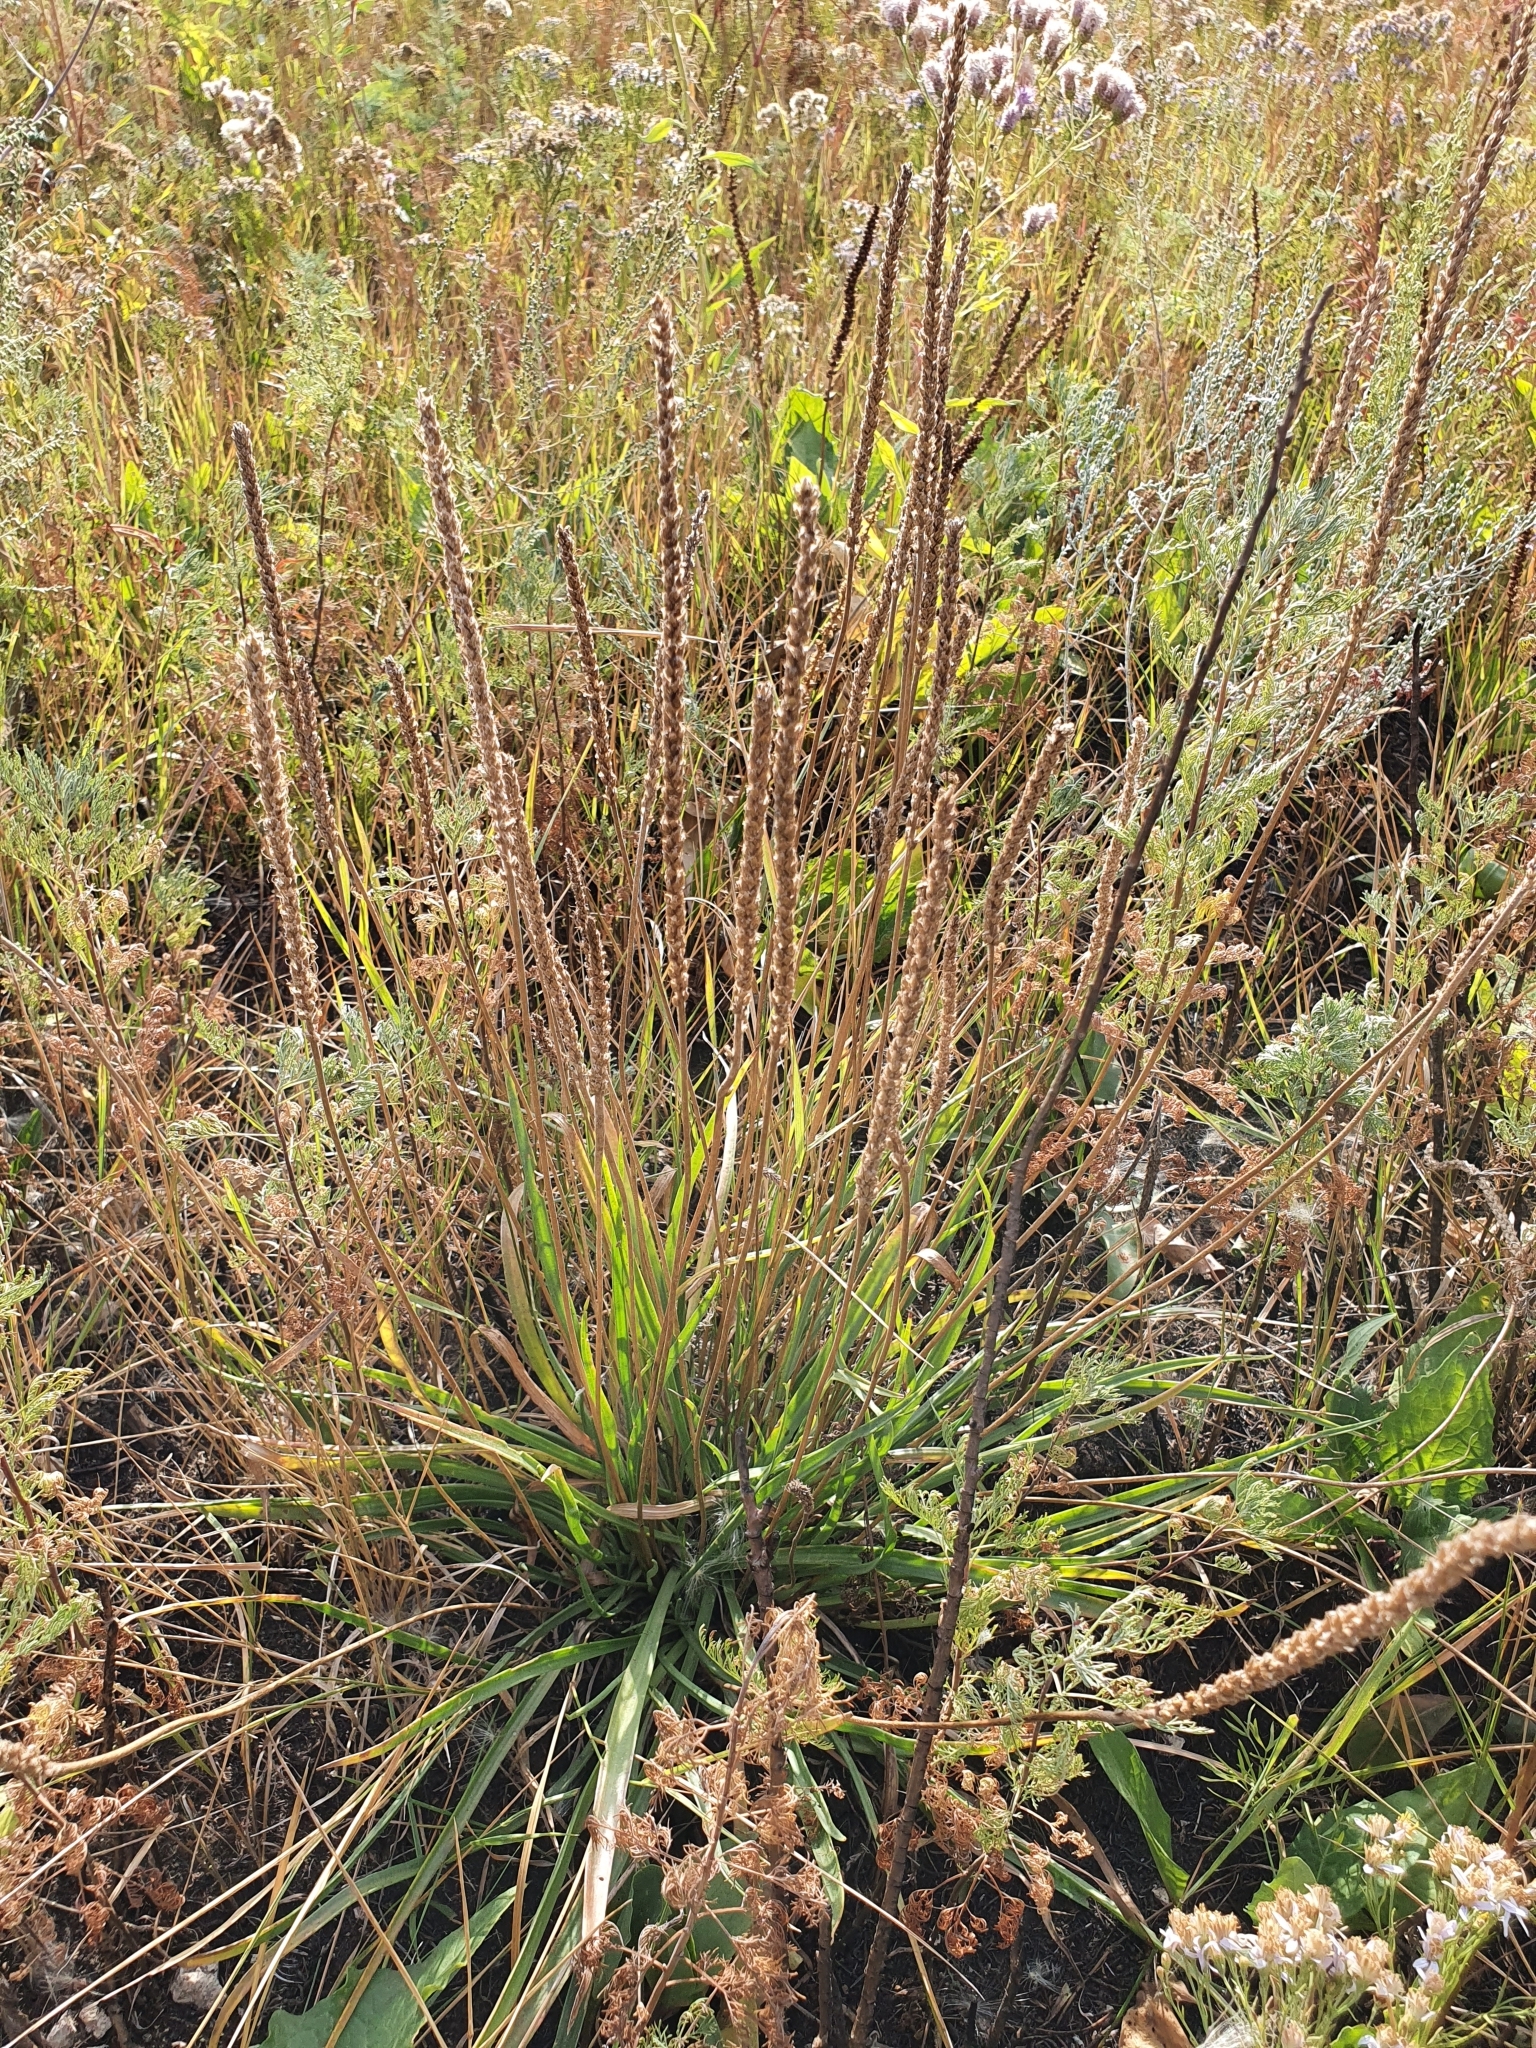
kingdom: Plantae
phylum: Tracheophyta
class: Magnoliopsida
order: Lamiales
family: Plantaginaceae
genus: Plantago
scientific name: Plantago salsa
